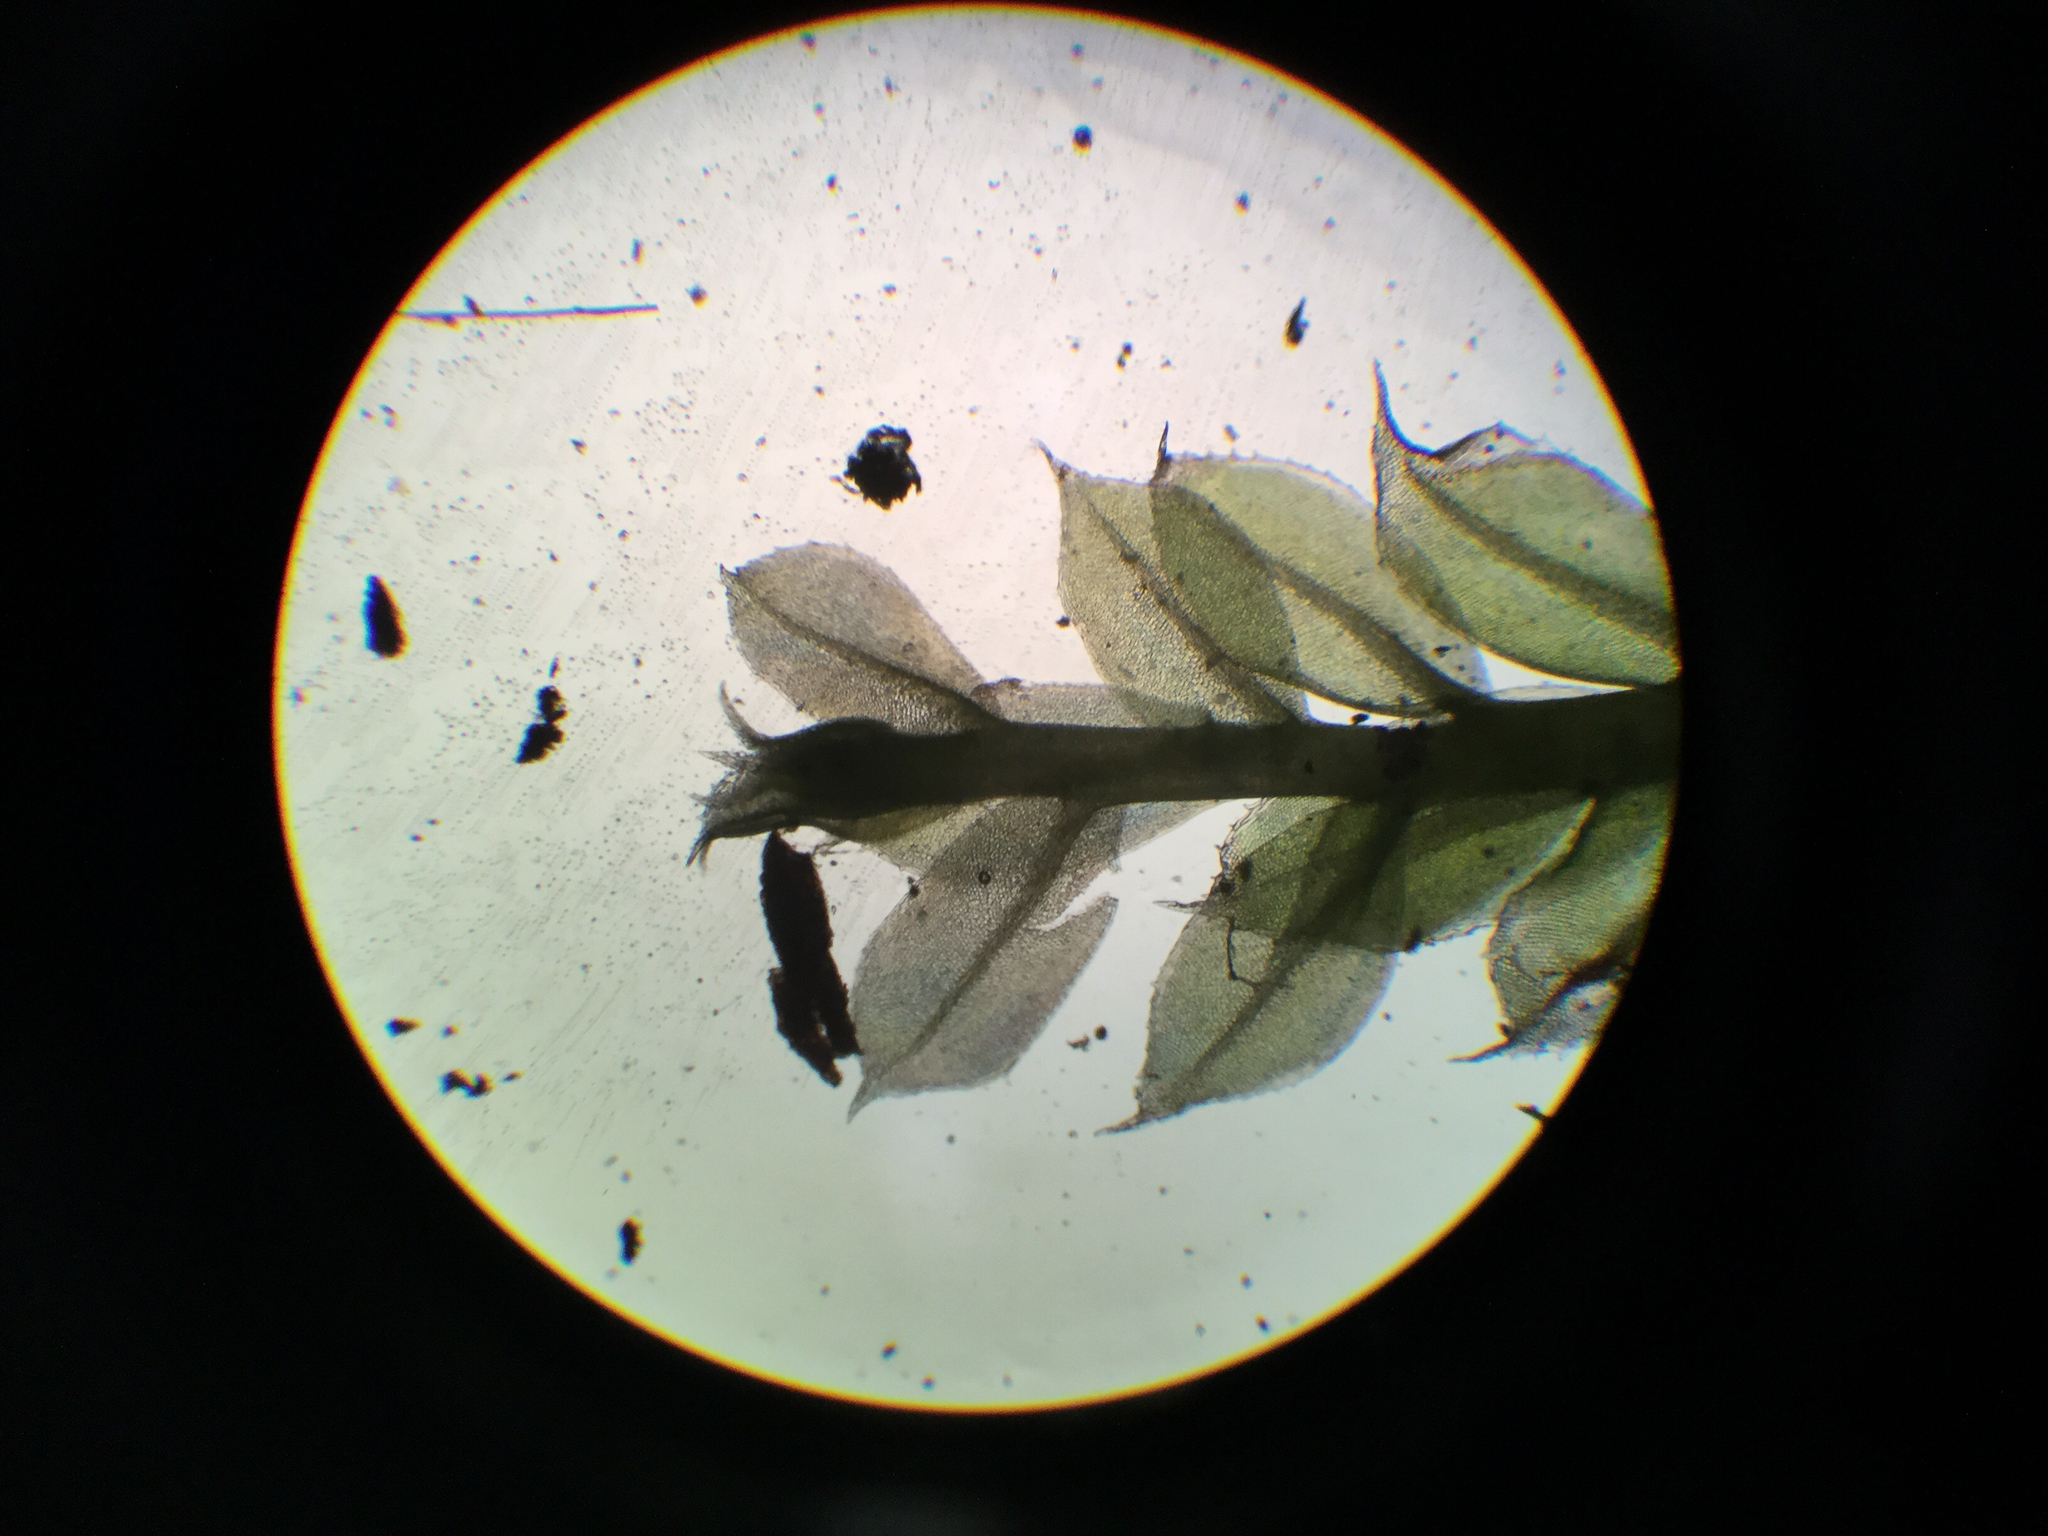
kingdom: Plantae
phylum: Bryophyta
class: Bryopsida
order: Bryales
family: Mniaceae
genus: Plagiomnium
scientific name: Plagiomnium cuspidatum
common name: Woodsy leafy moss
